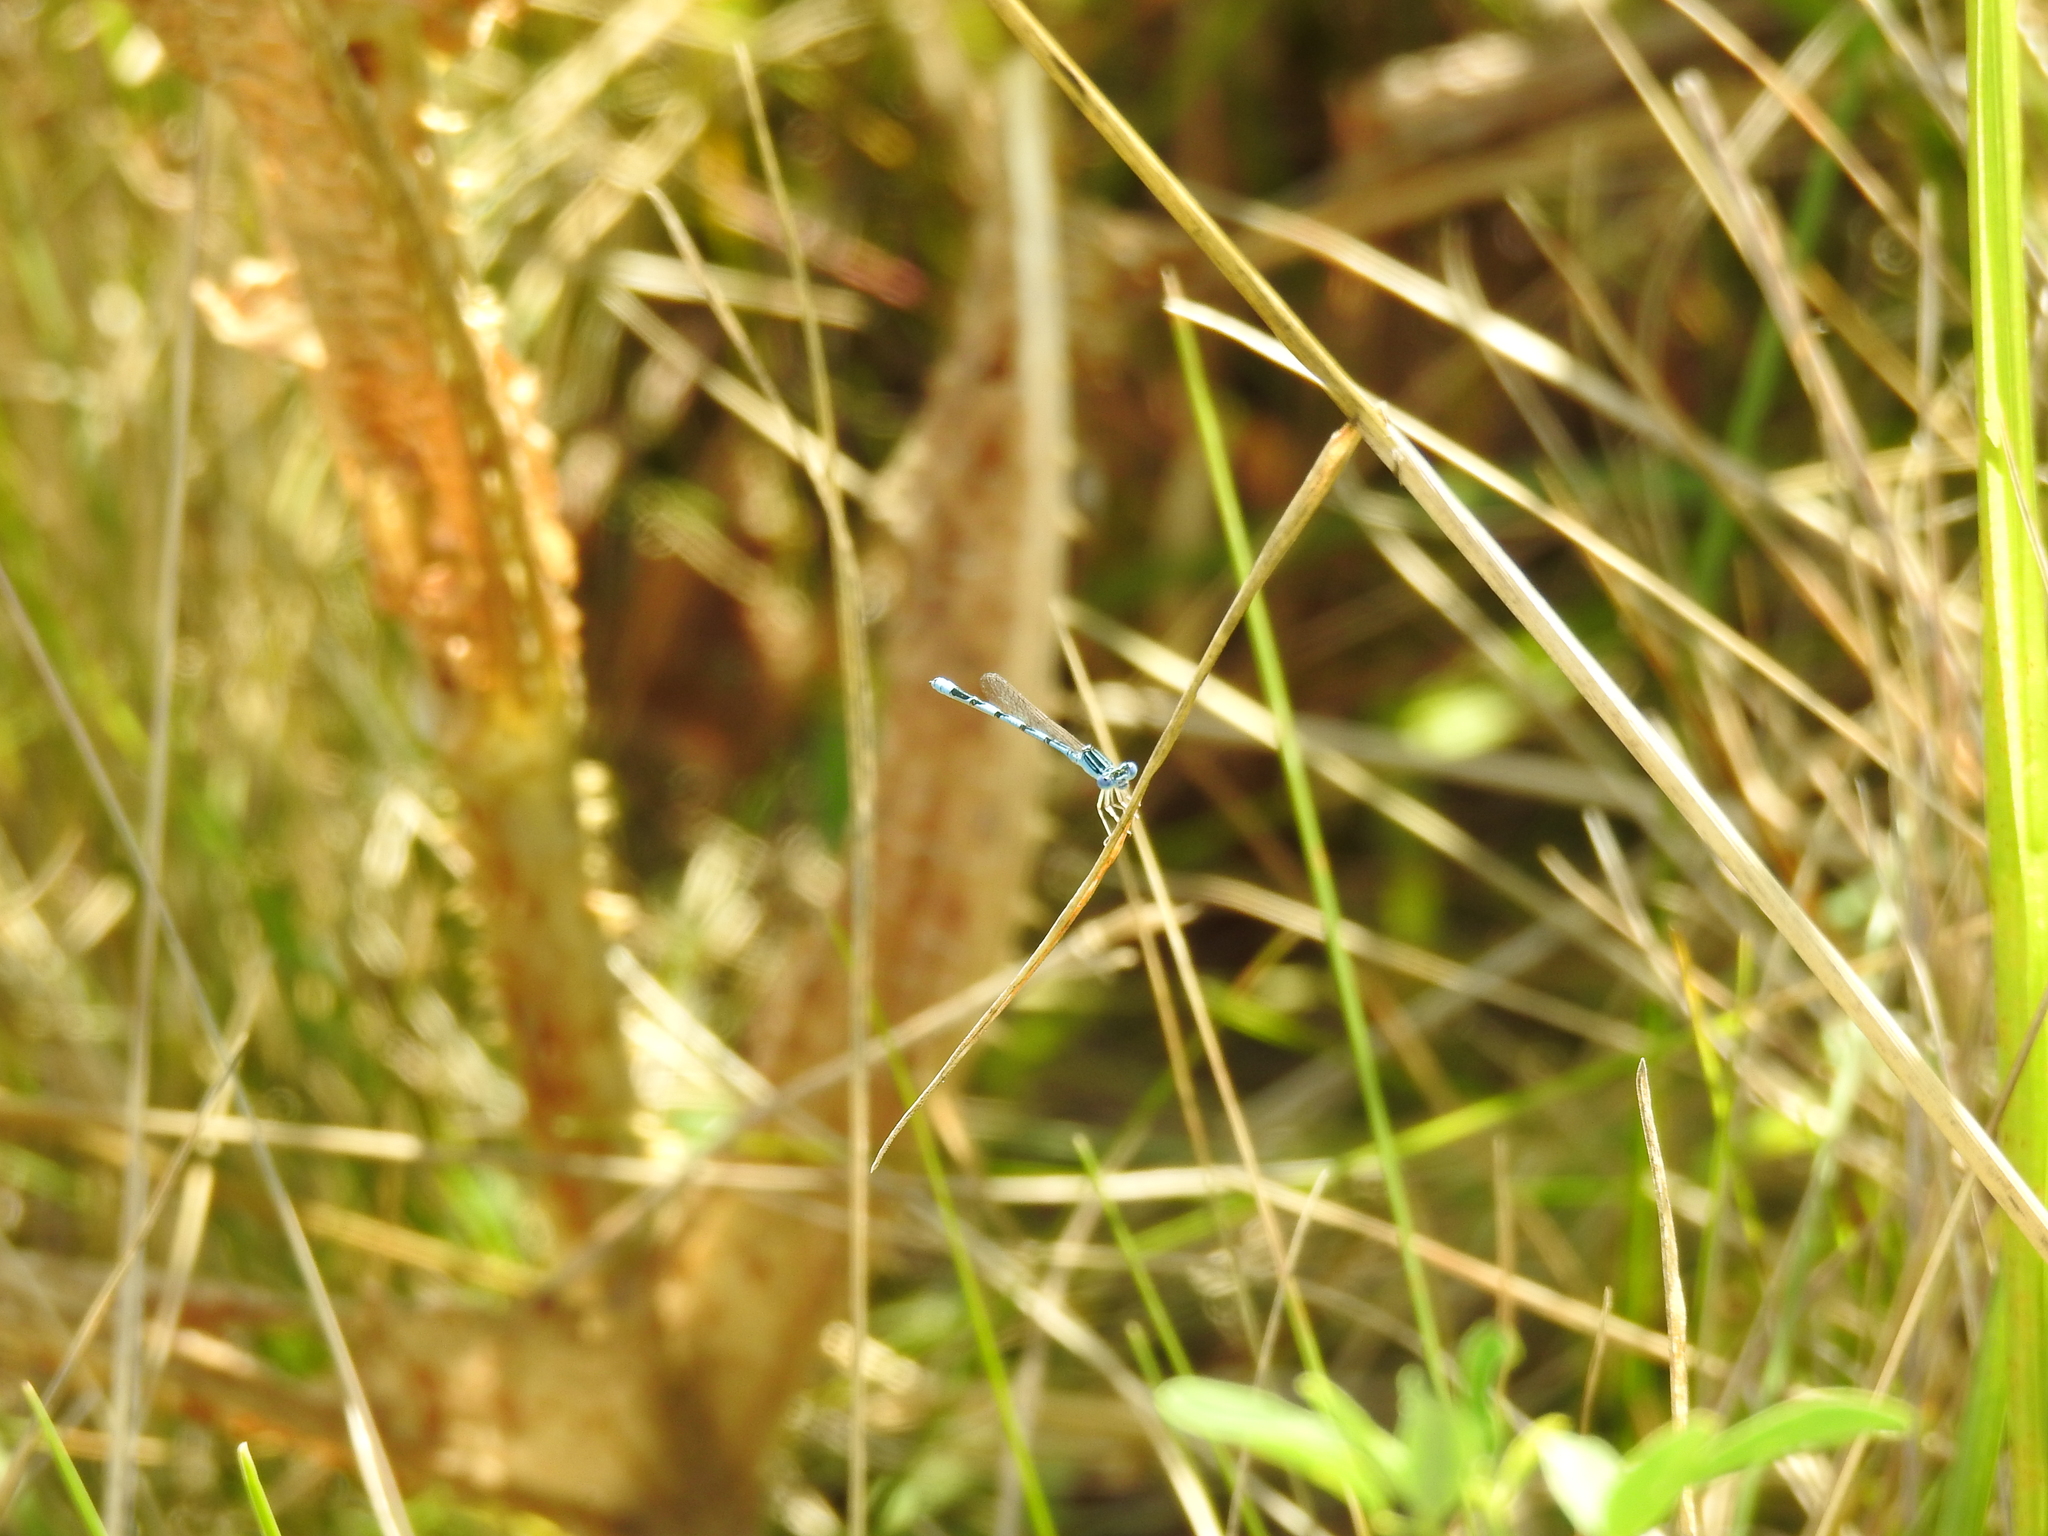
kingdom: Animalia
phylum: Arthropoda
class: Insecta
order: Odonata
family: Coenagrionidae
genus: Enallagma
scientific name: Enallagma basidens
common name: Double-striped bluet
